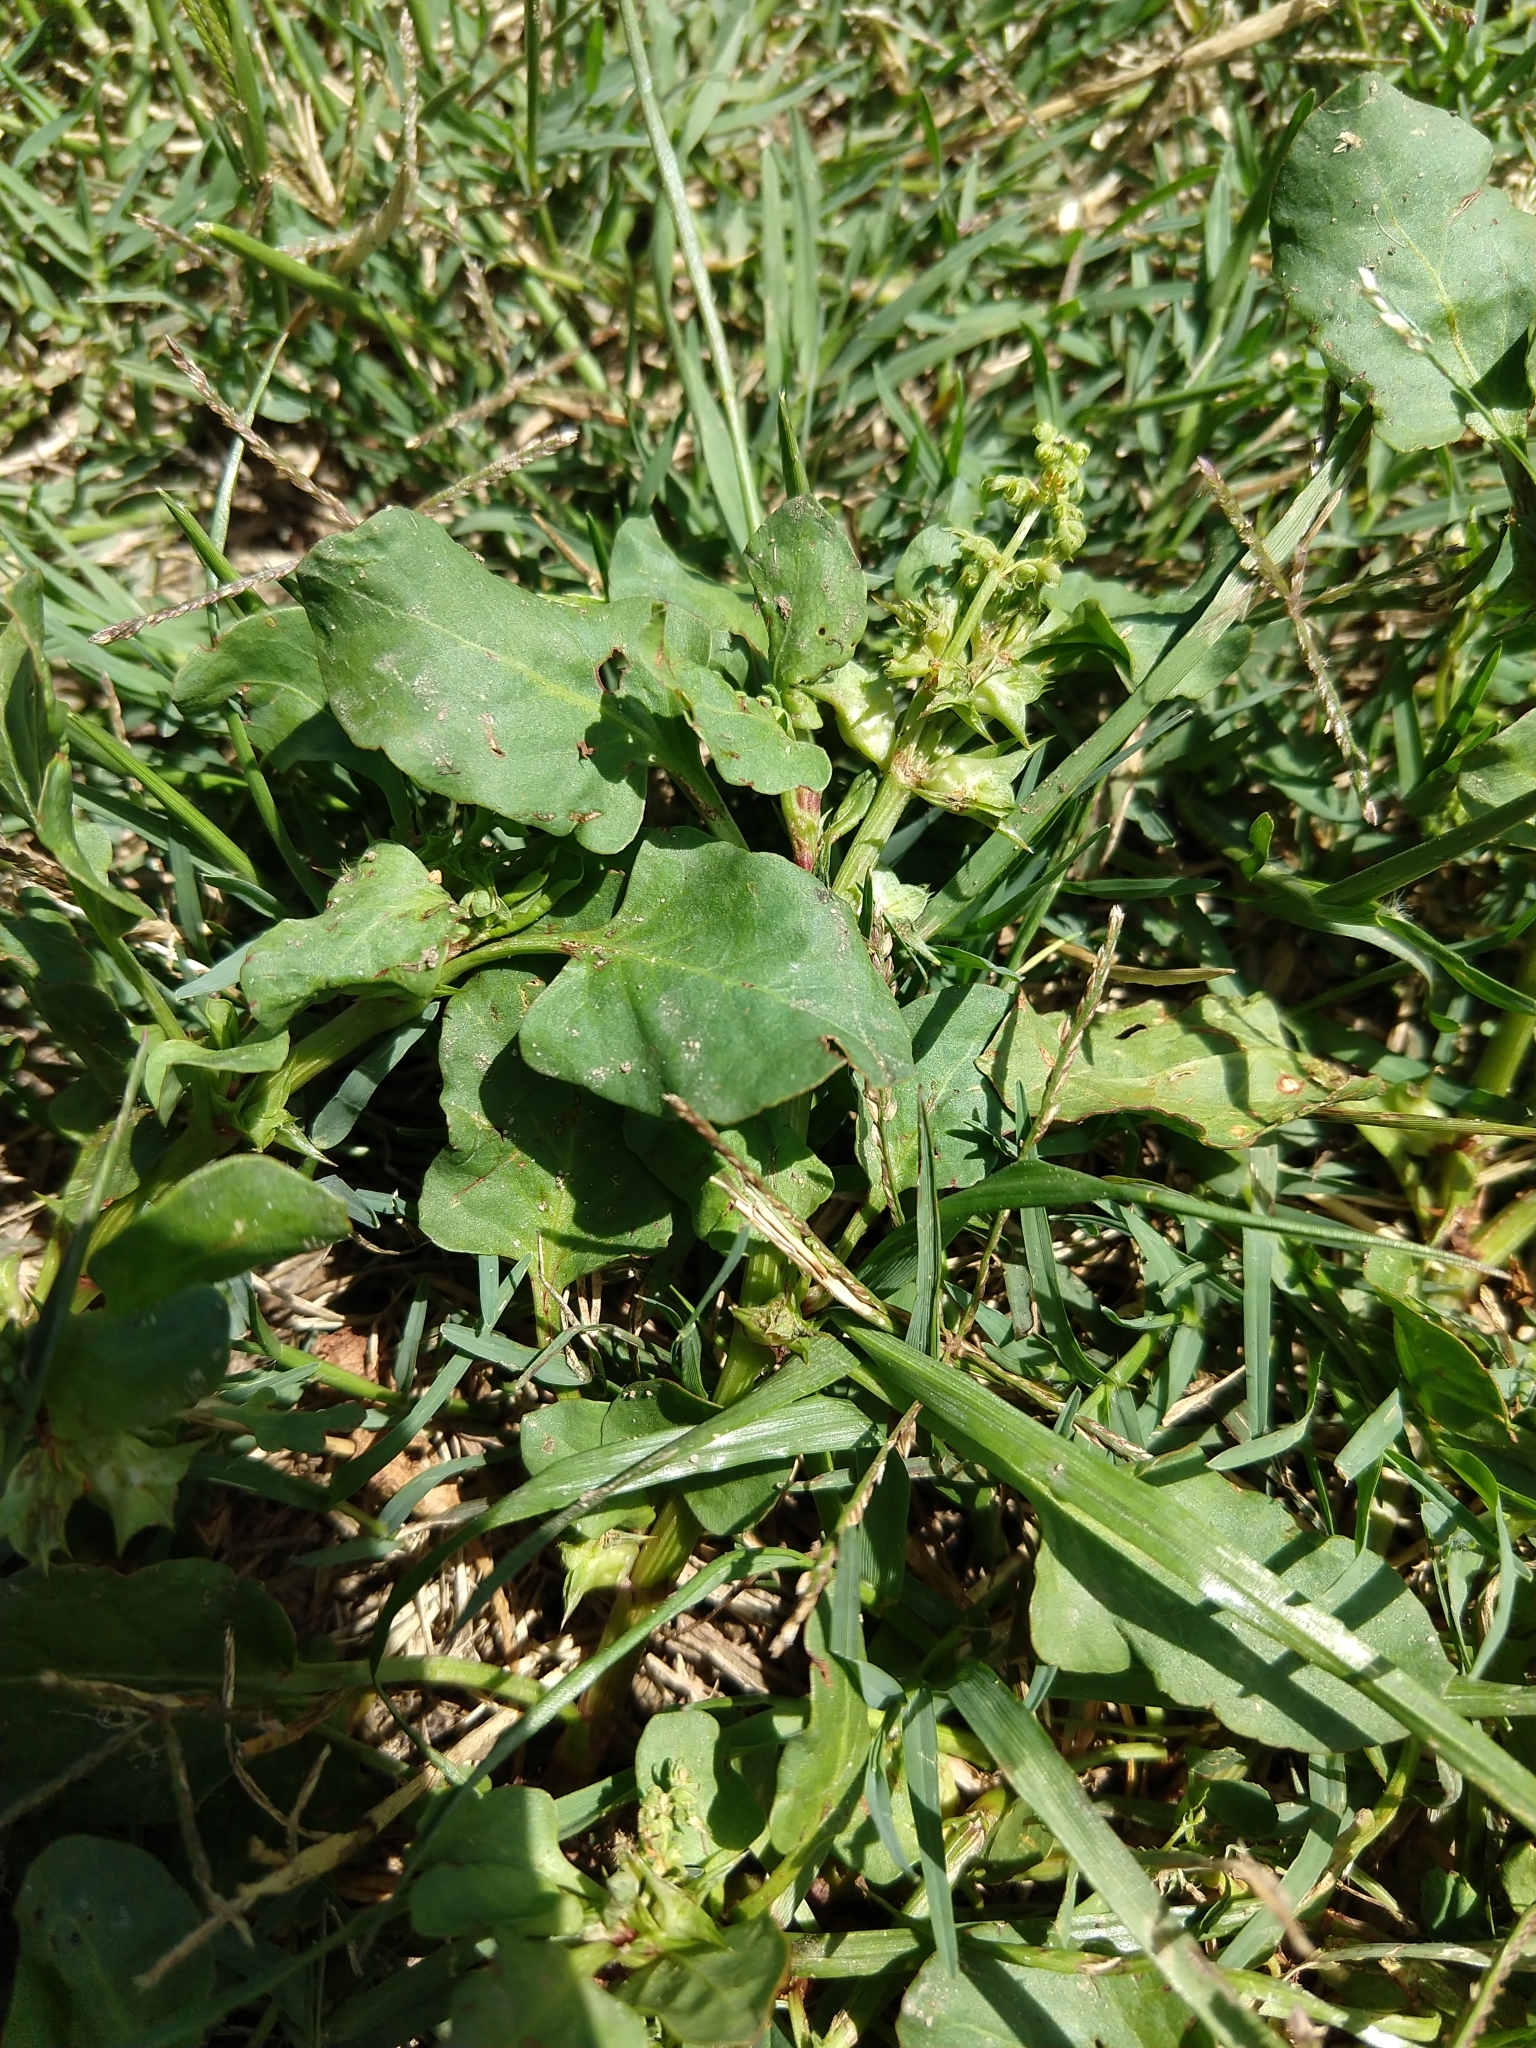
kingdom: Plantae
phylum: Tracheophyta
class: Magnoliopsida
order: Caryophyllales
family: Polygonaceae
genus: Rumex
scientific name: Rumex hypogaeus
